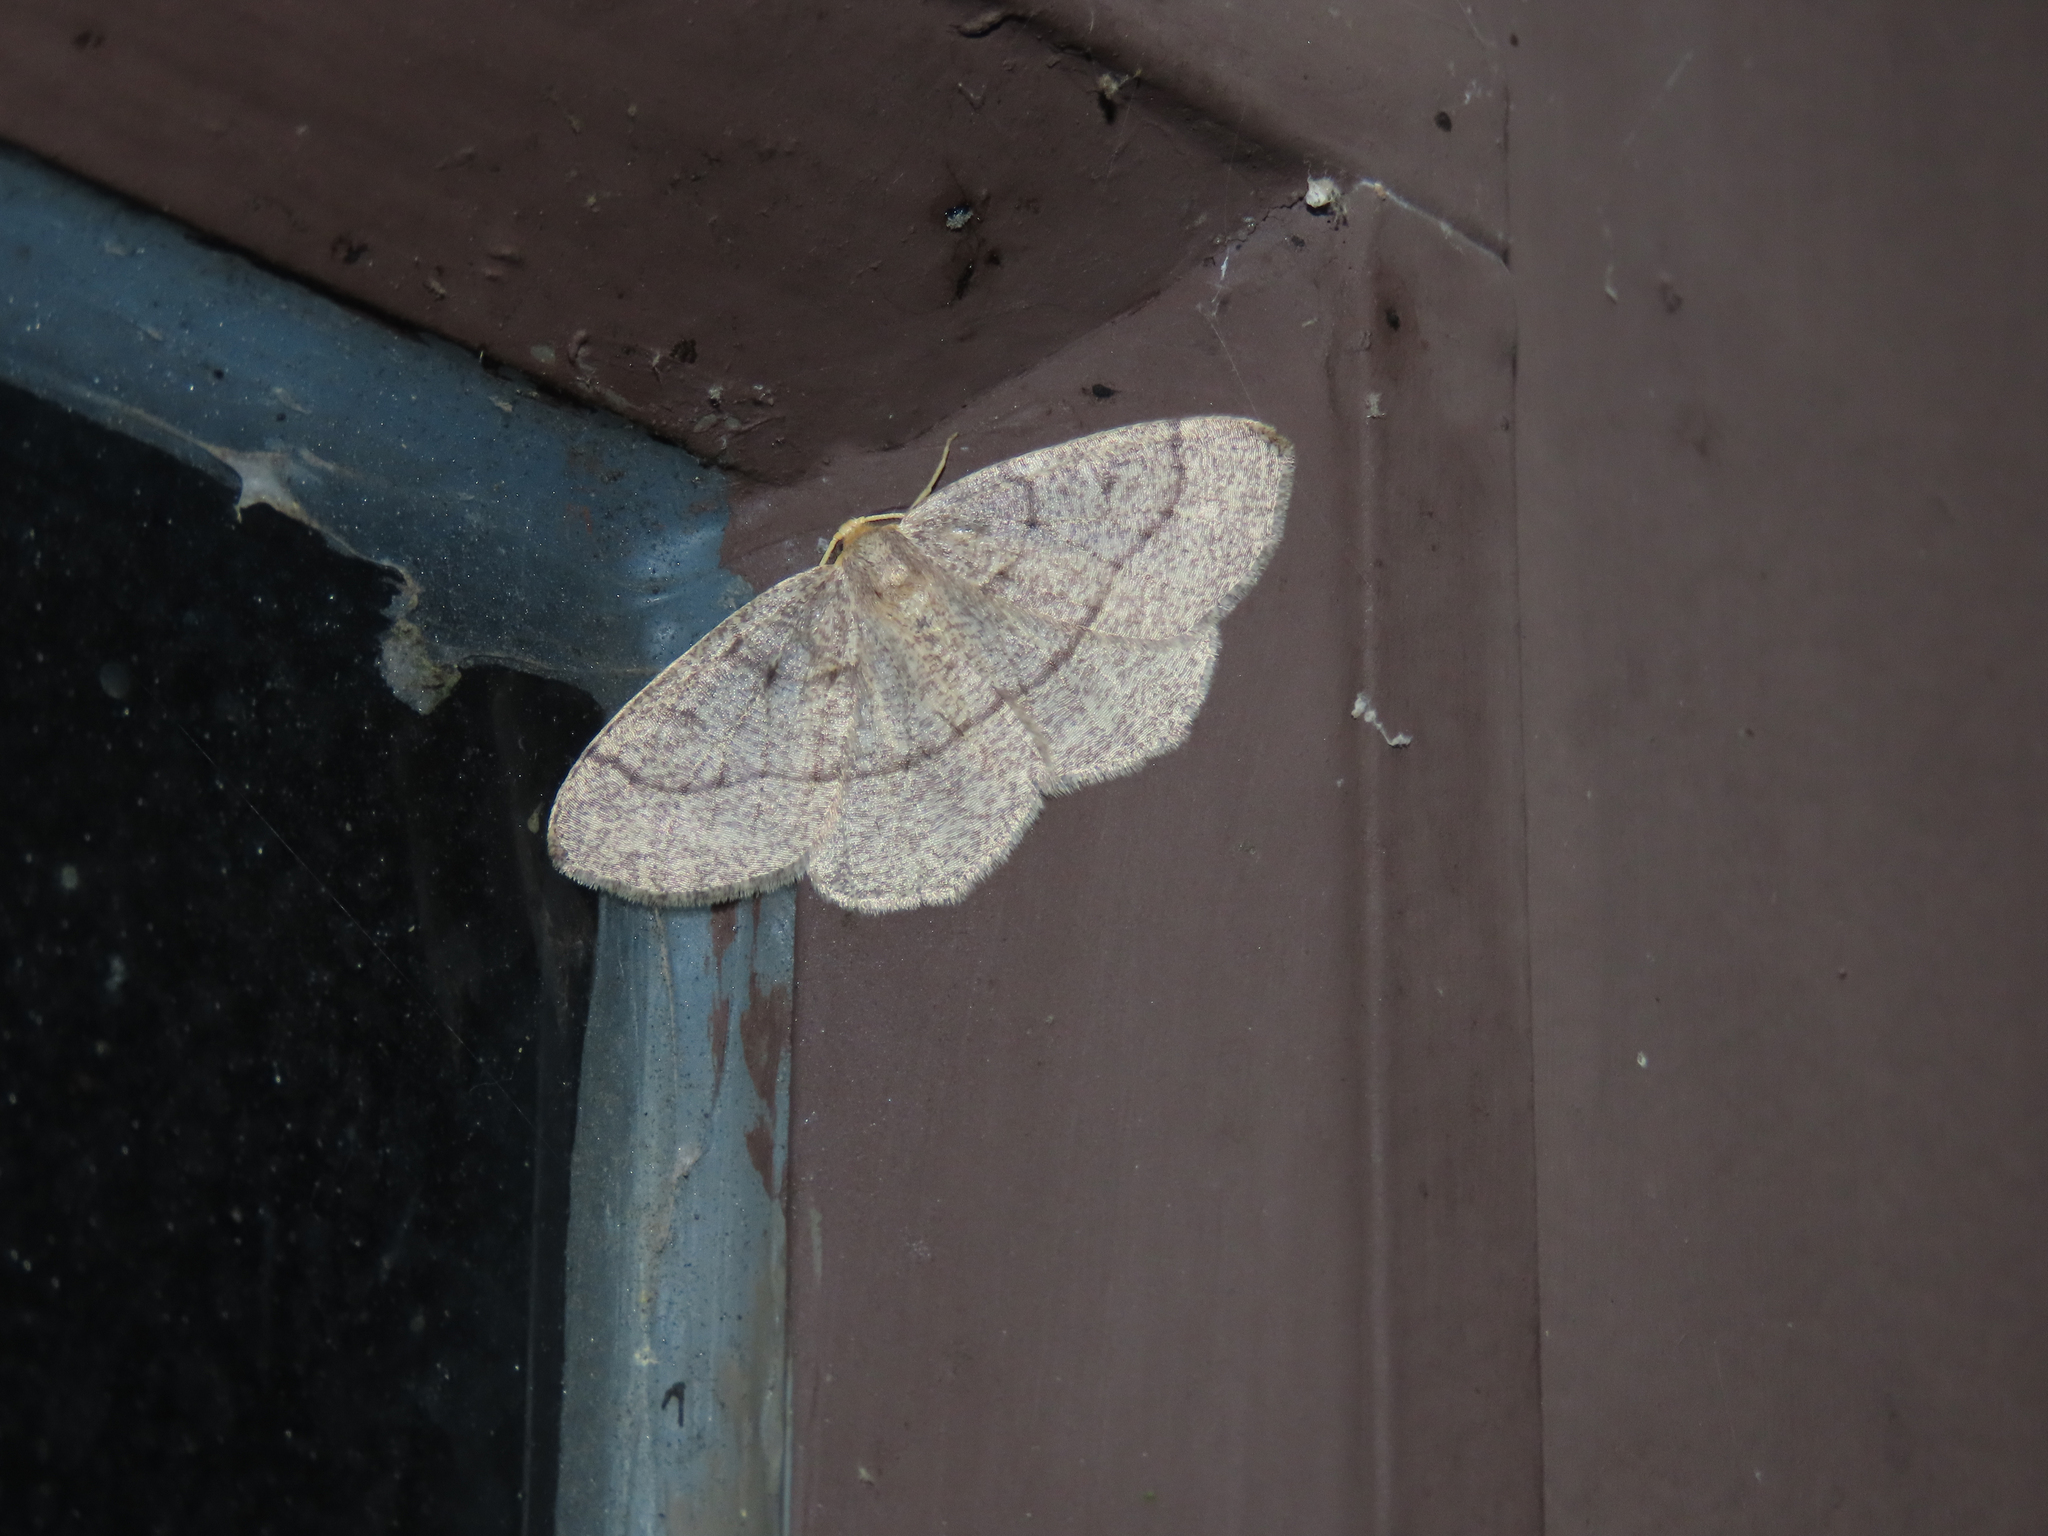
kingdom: Animalia
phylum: Arthropoda
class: Insecta
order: Lepidoptera
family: Geometridae
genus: Lambdina
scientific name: Lambdina fervidaria
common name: Curve-lined looper moth
